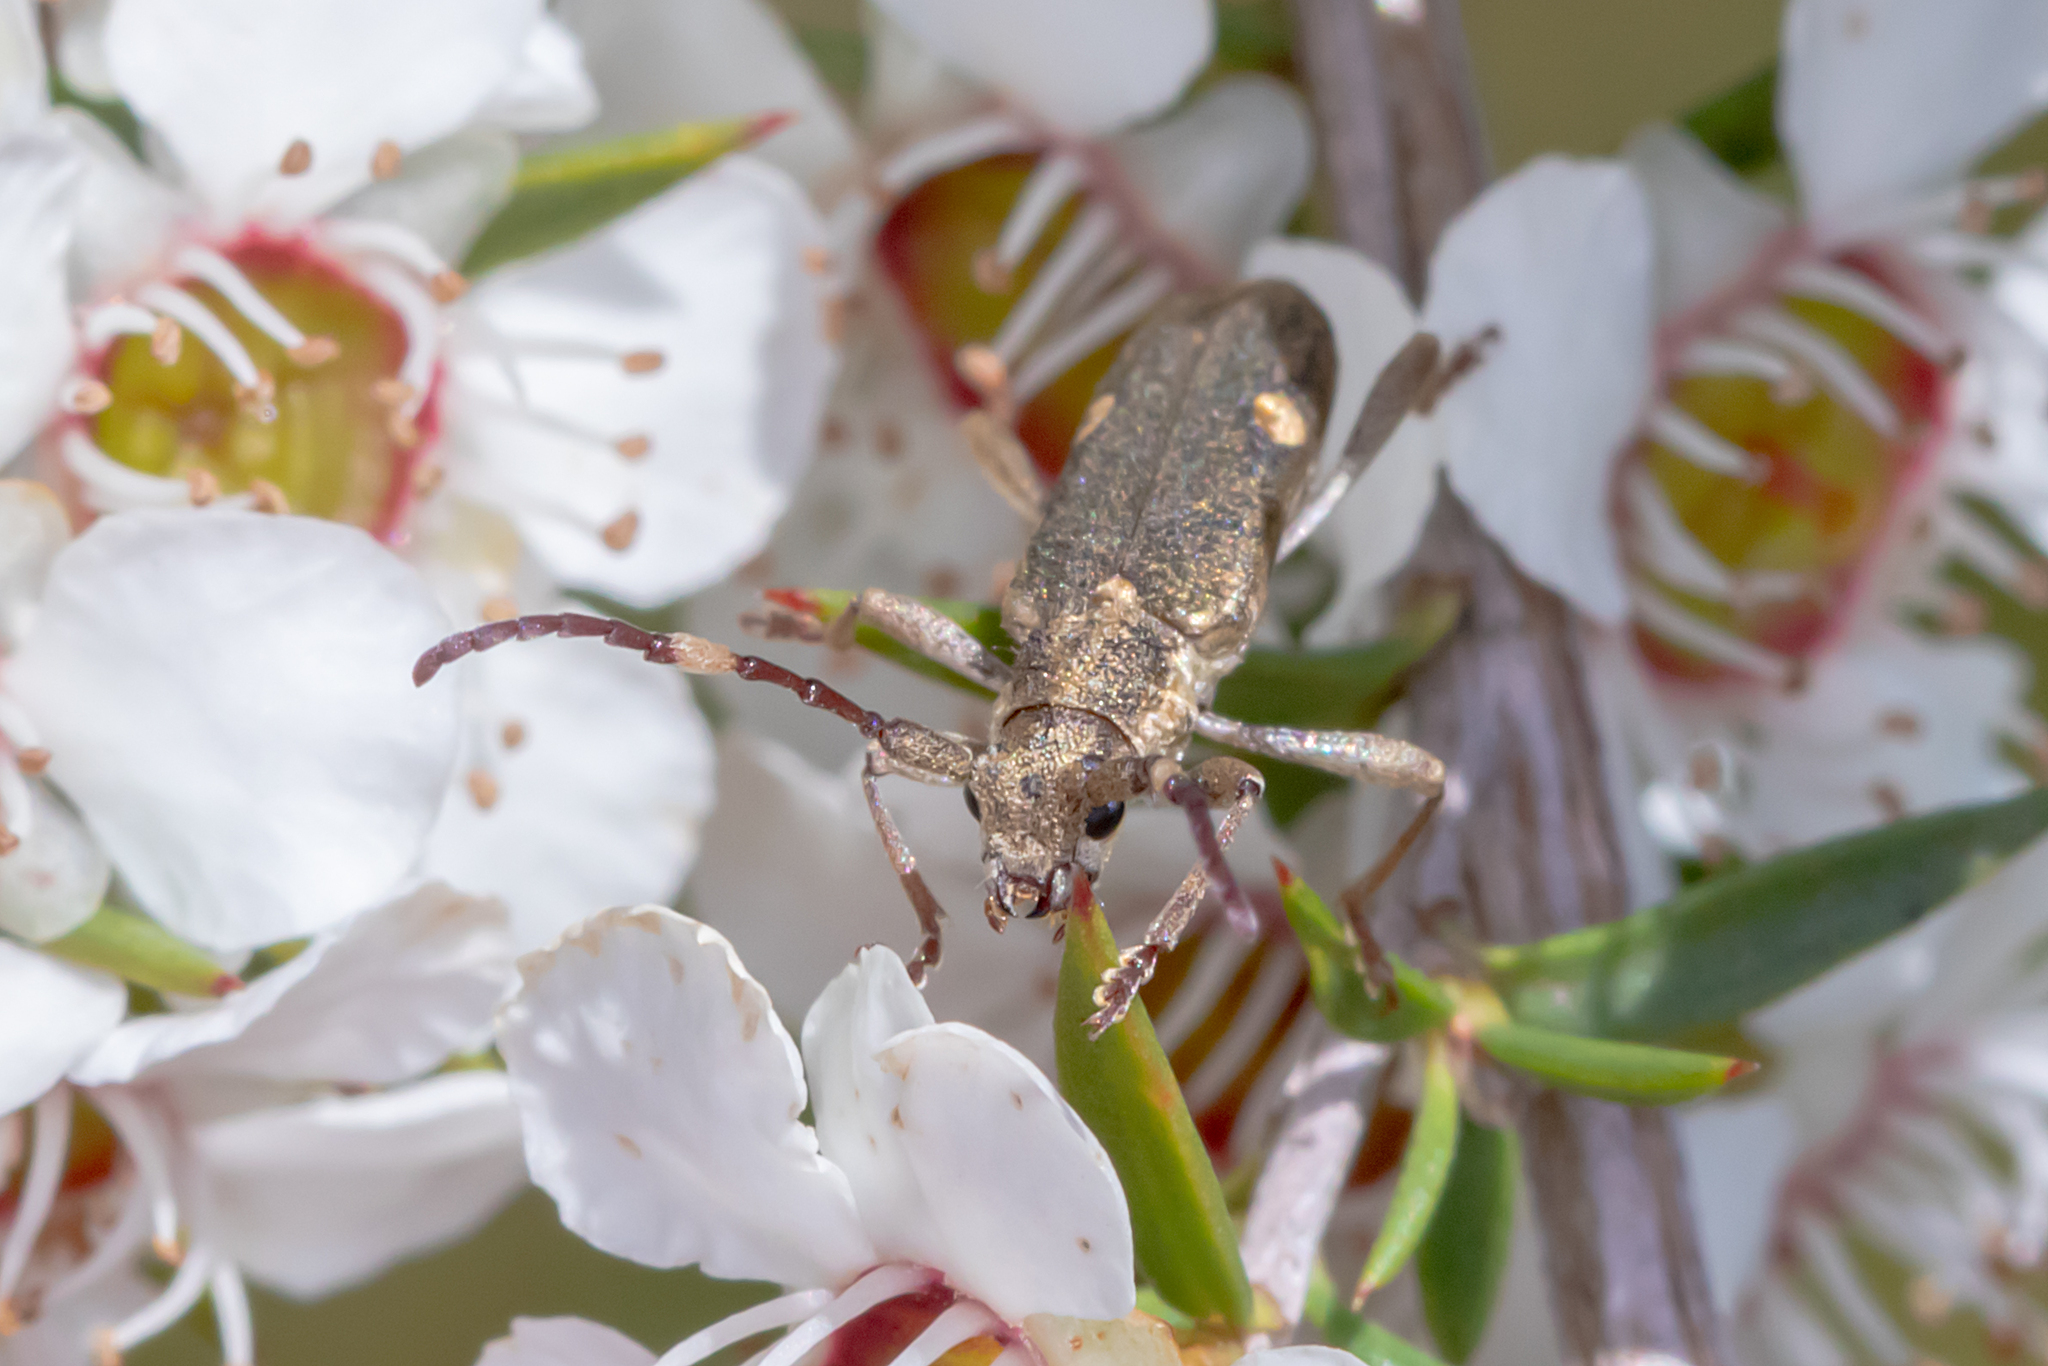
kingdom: Animalia
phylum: Arthropoda
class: Insecta
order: Coleoptera
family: Cerambycidae
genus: Pempsamacra
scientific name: Pempsamacra pygmaea
